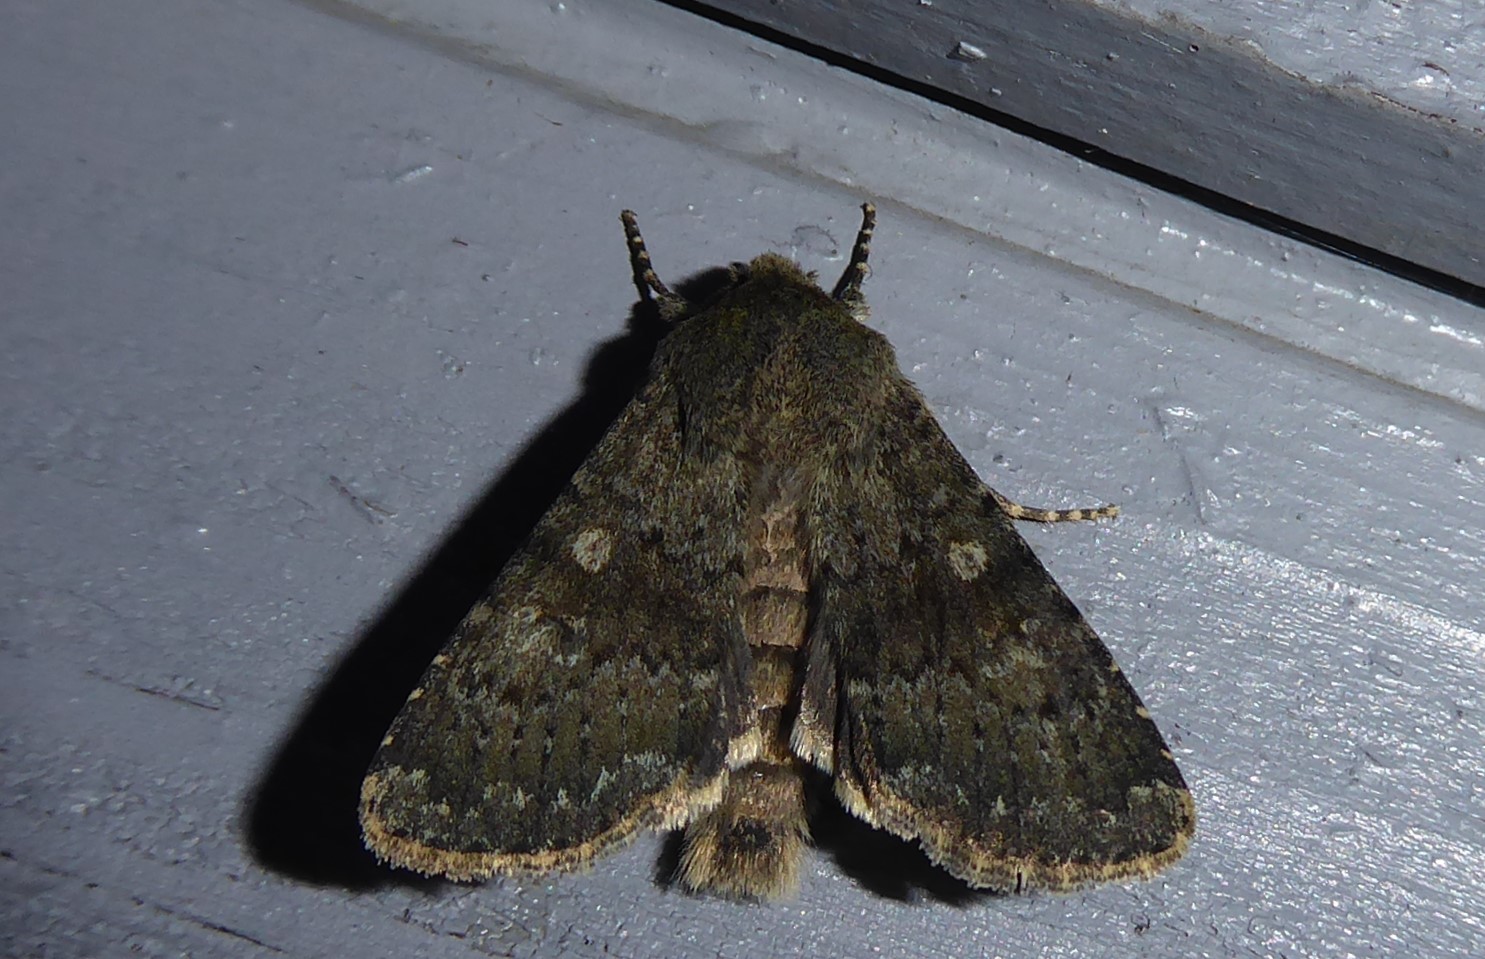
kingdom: Animalia
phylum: Arthropoda
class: Insecta
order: Lepidoptera
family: Noctuidae
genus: Ichneutica
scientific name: Ichneutica moderata
